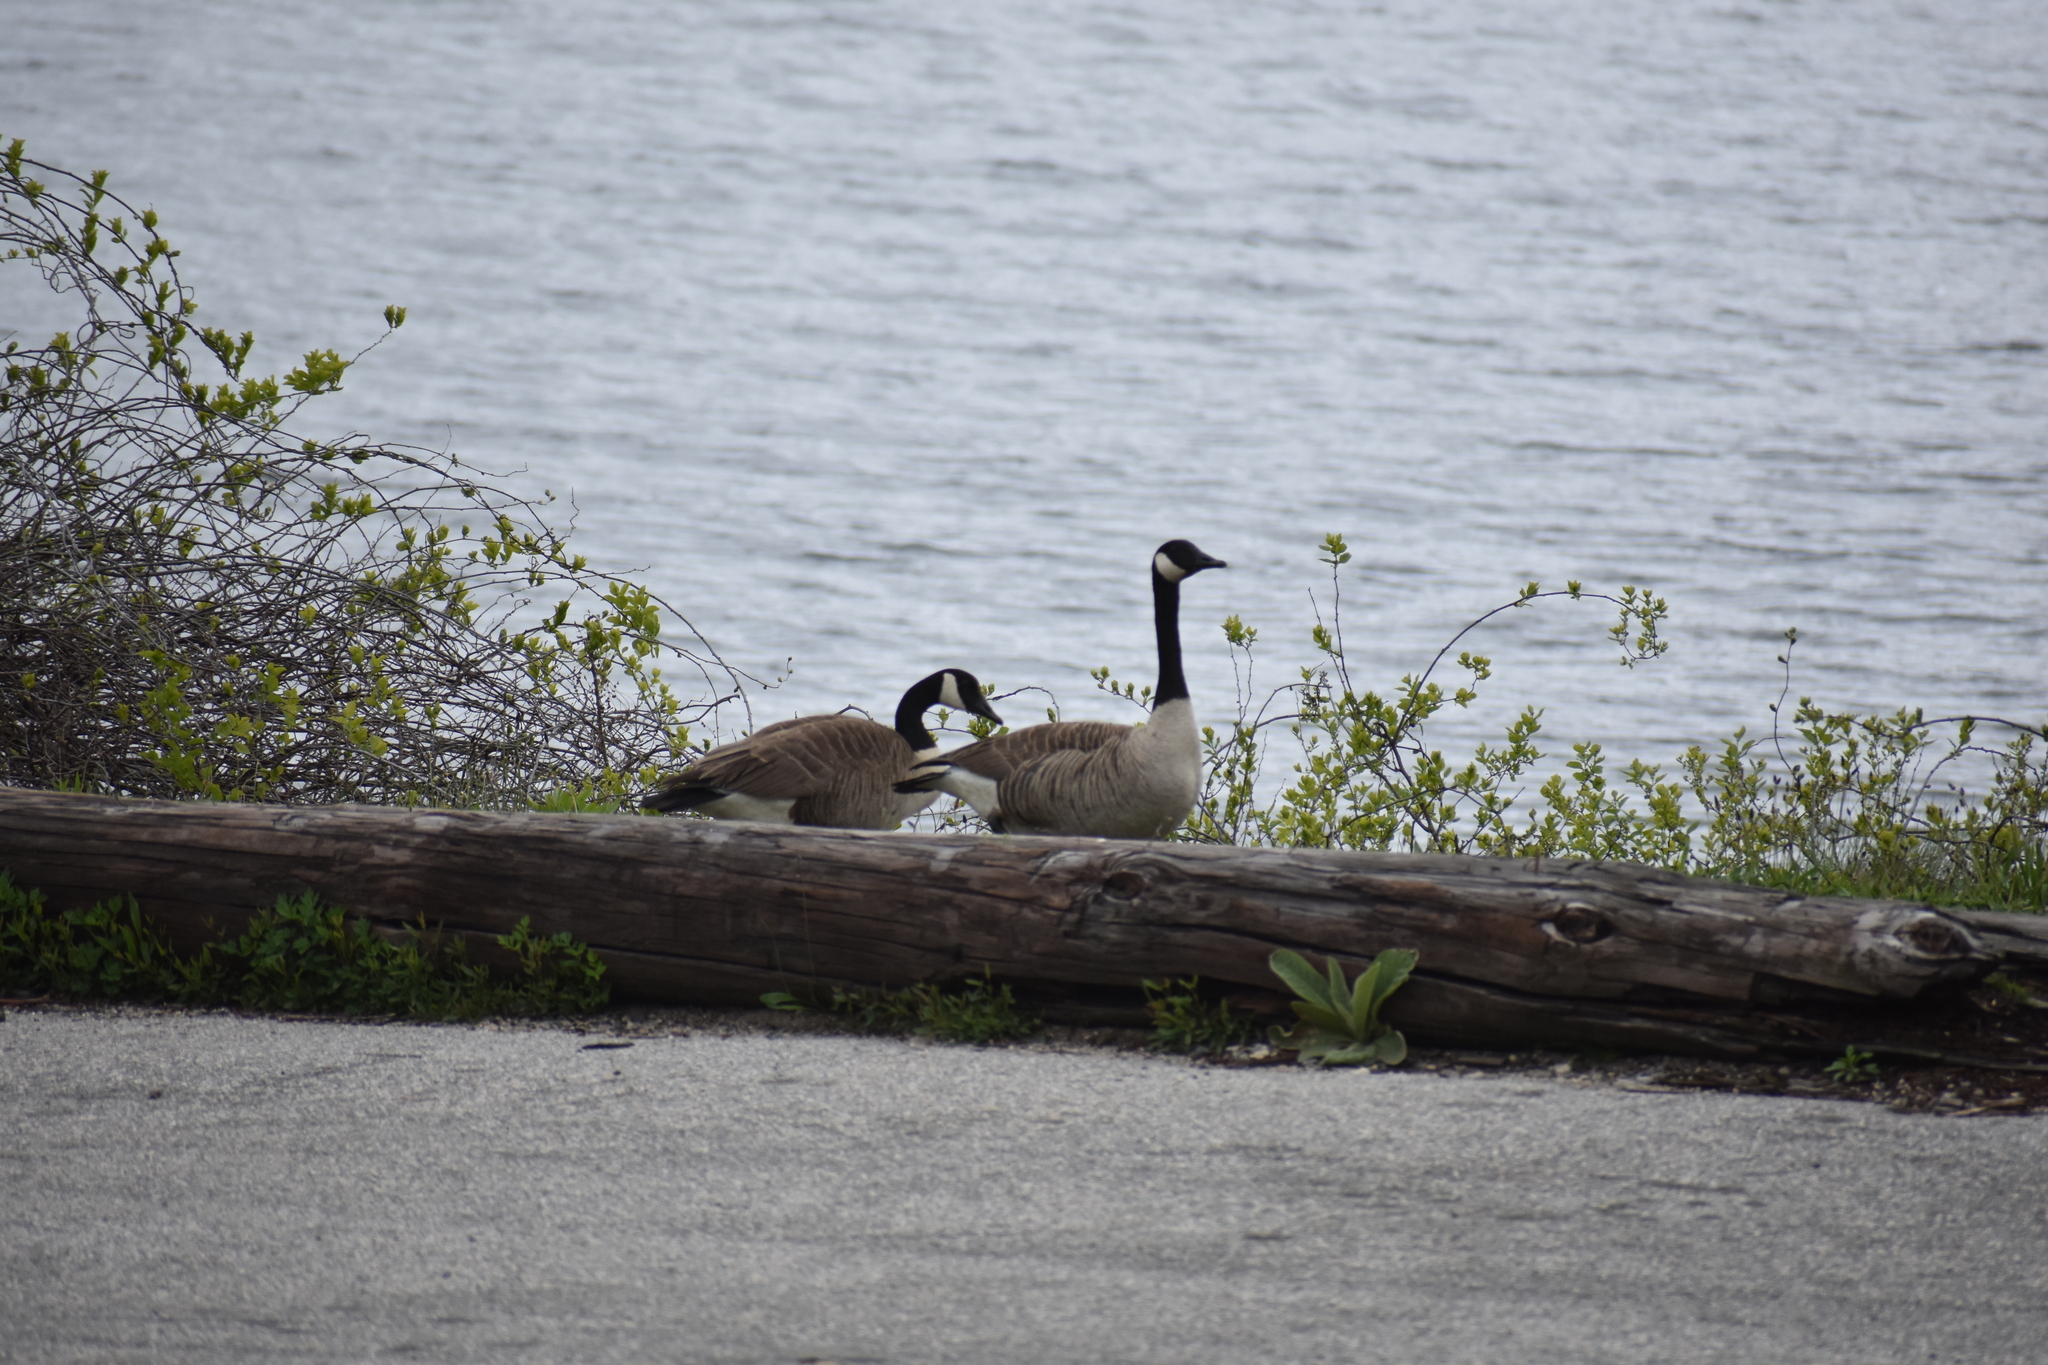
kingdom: Animalia
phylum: Chordata
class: Aves
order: Anseriformes
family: Anatidae
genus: Branta
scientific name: Branta canadensis
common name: Canada goose
